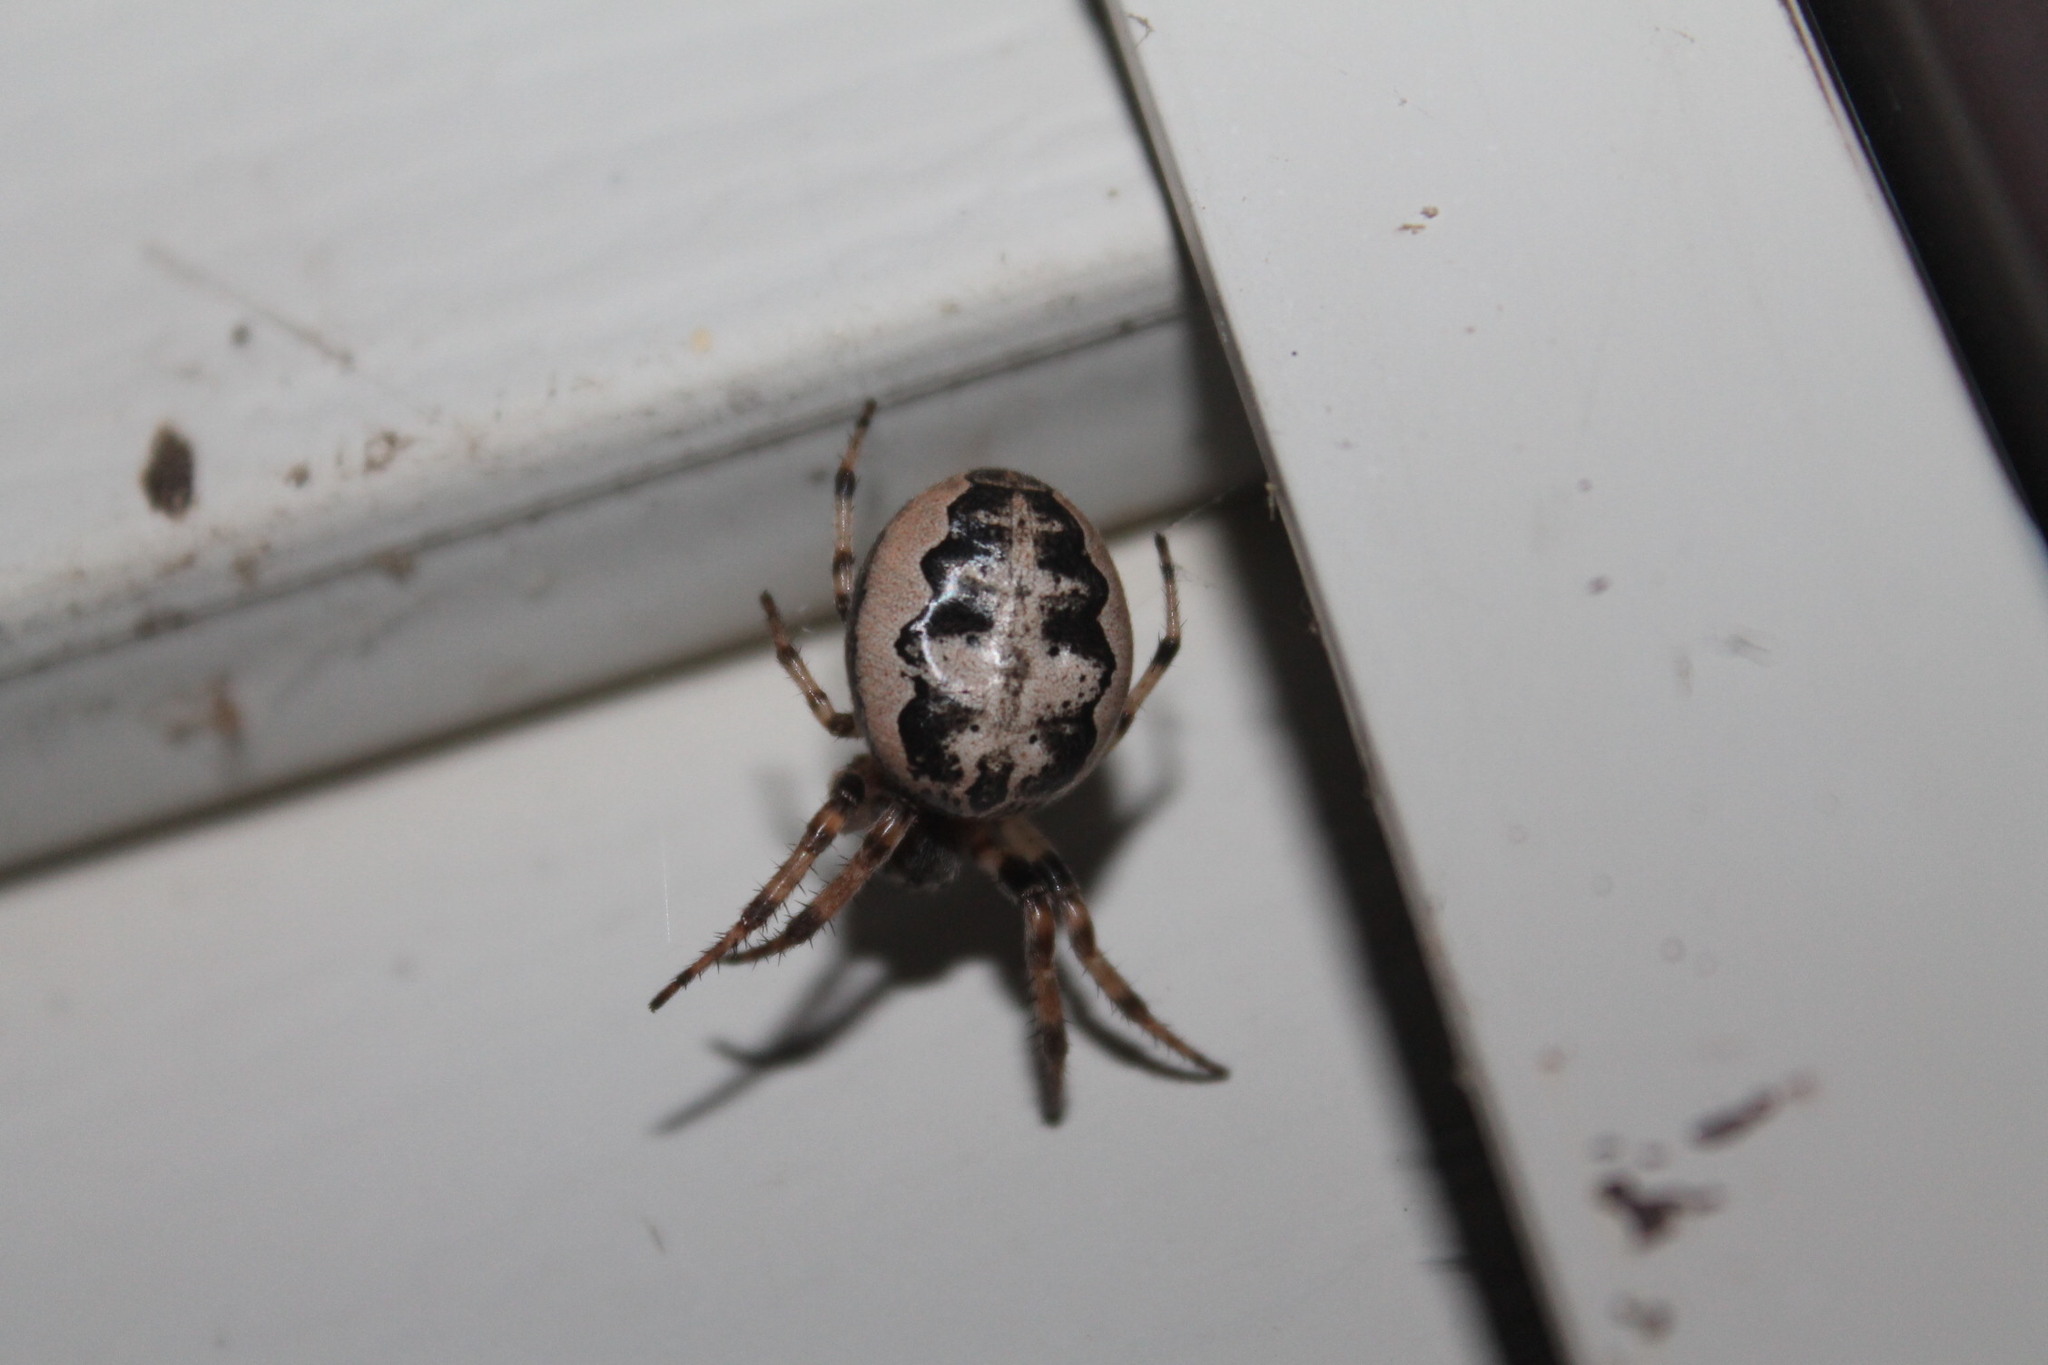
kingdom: Animalia
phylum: Arthropoda
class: Arachnida
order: Araneae
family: Araneidae
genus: Larinioides
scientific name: Larinioides cornutus
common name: Furrow orbweaver
